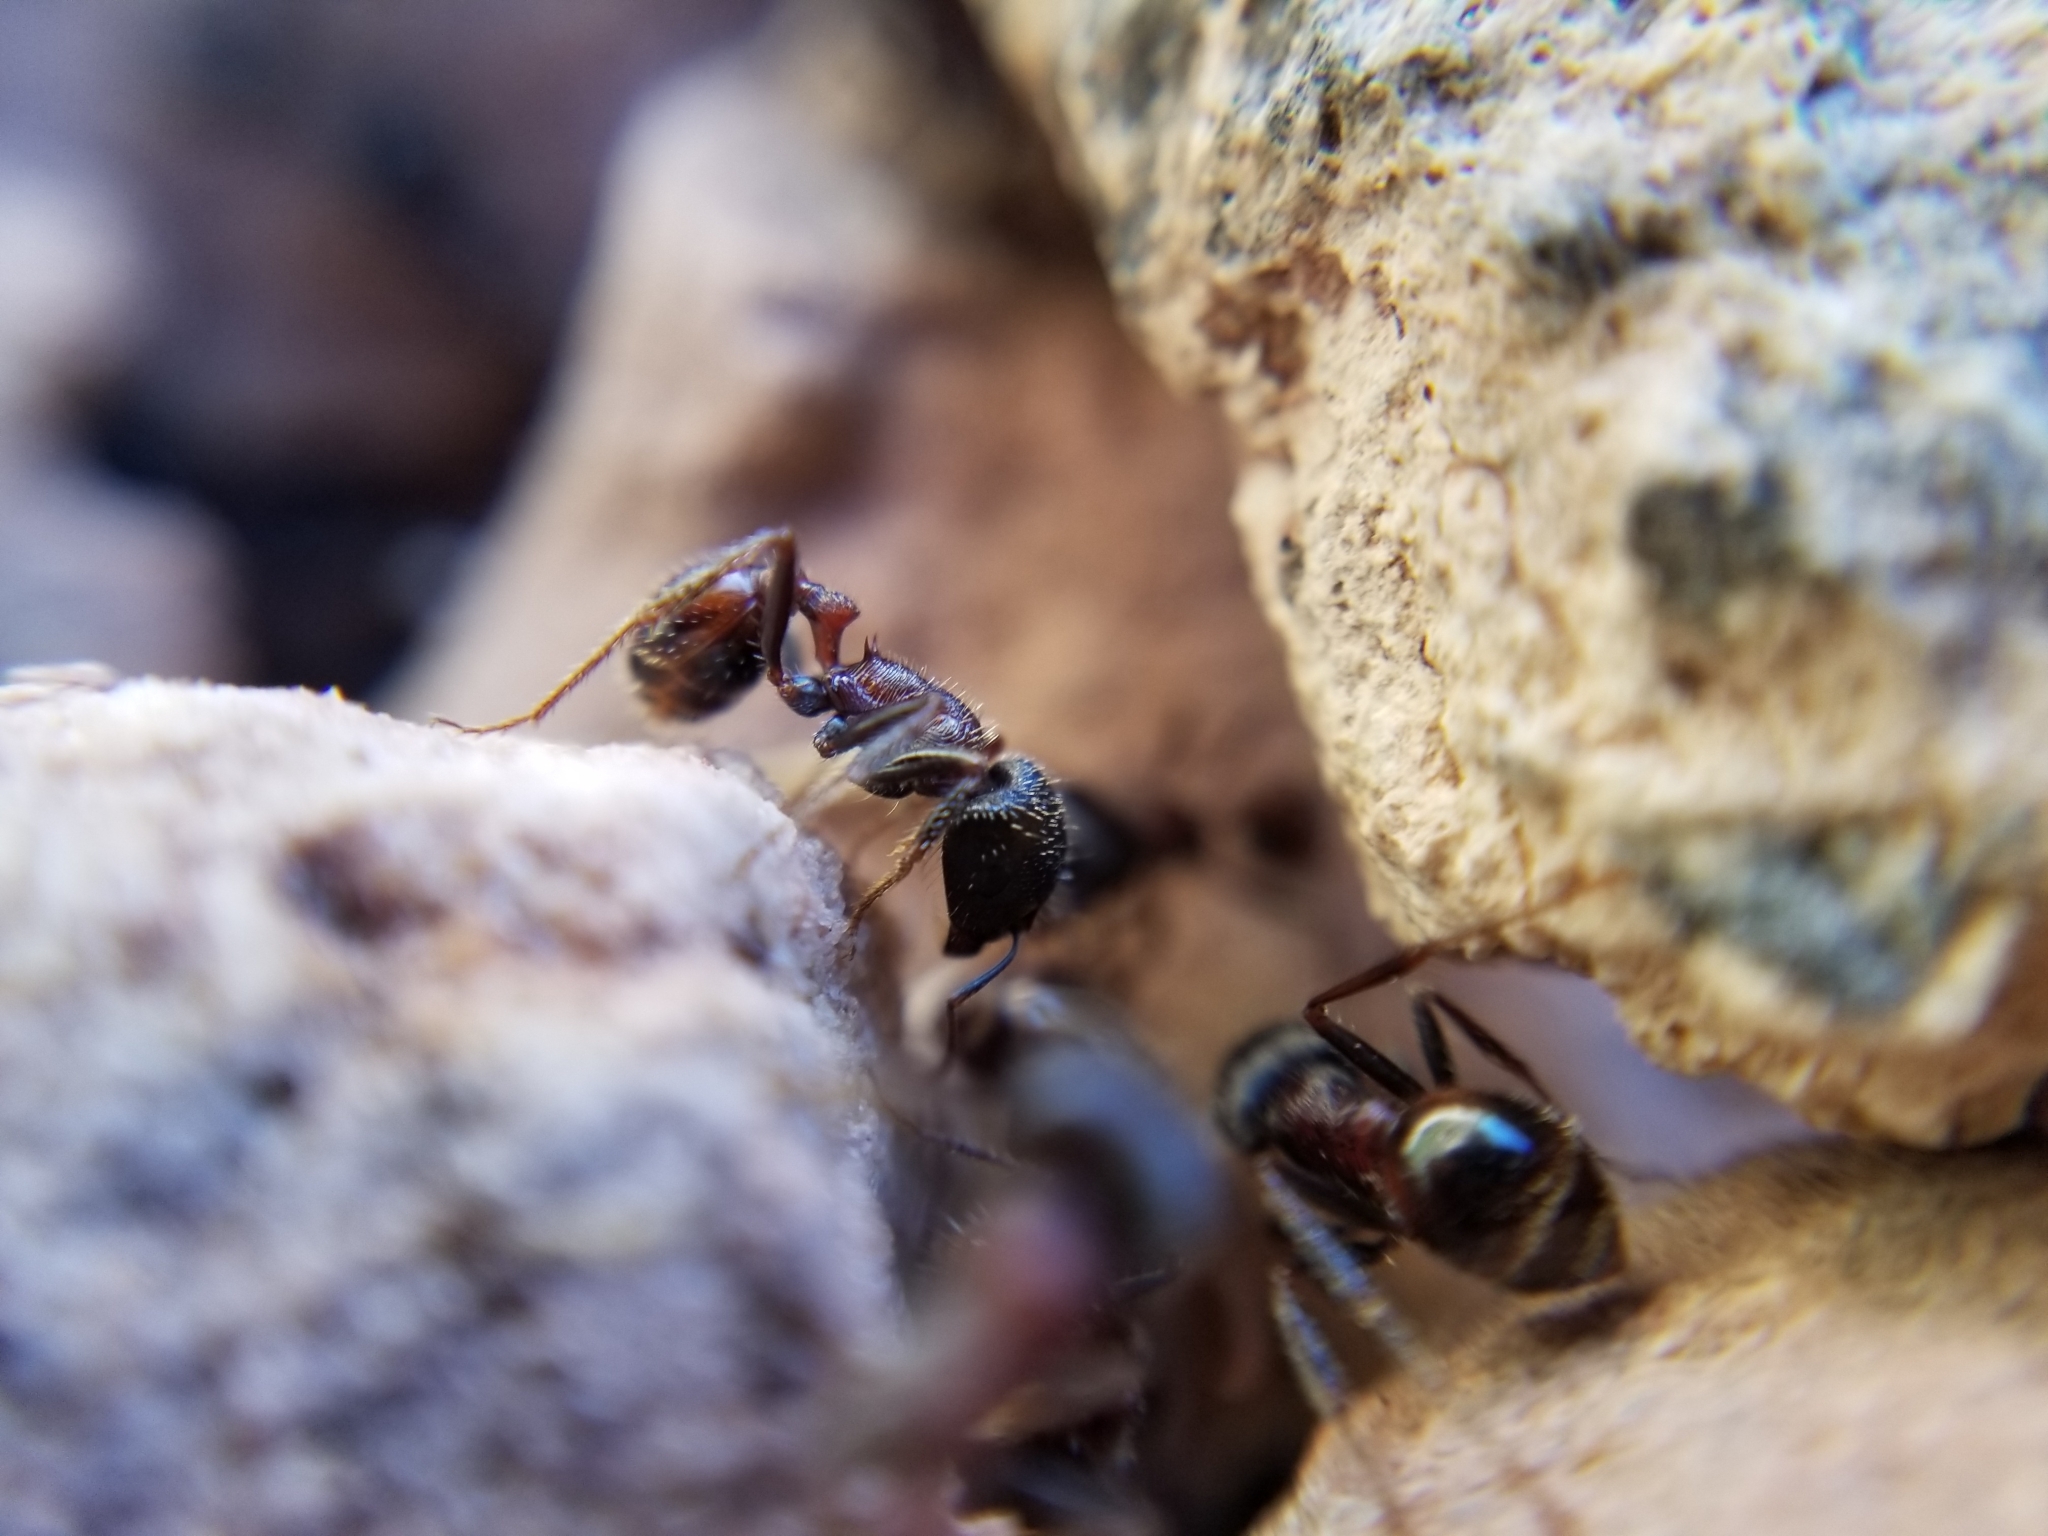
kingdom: Animalia
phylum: Arthropoda
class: Insecta
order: Hymenoptera
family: Formicidae
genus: Pogonomyrmex
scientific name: Pogonomyrmex rugosus
